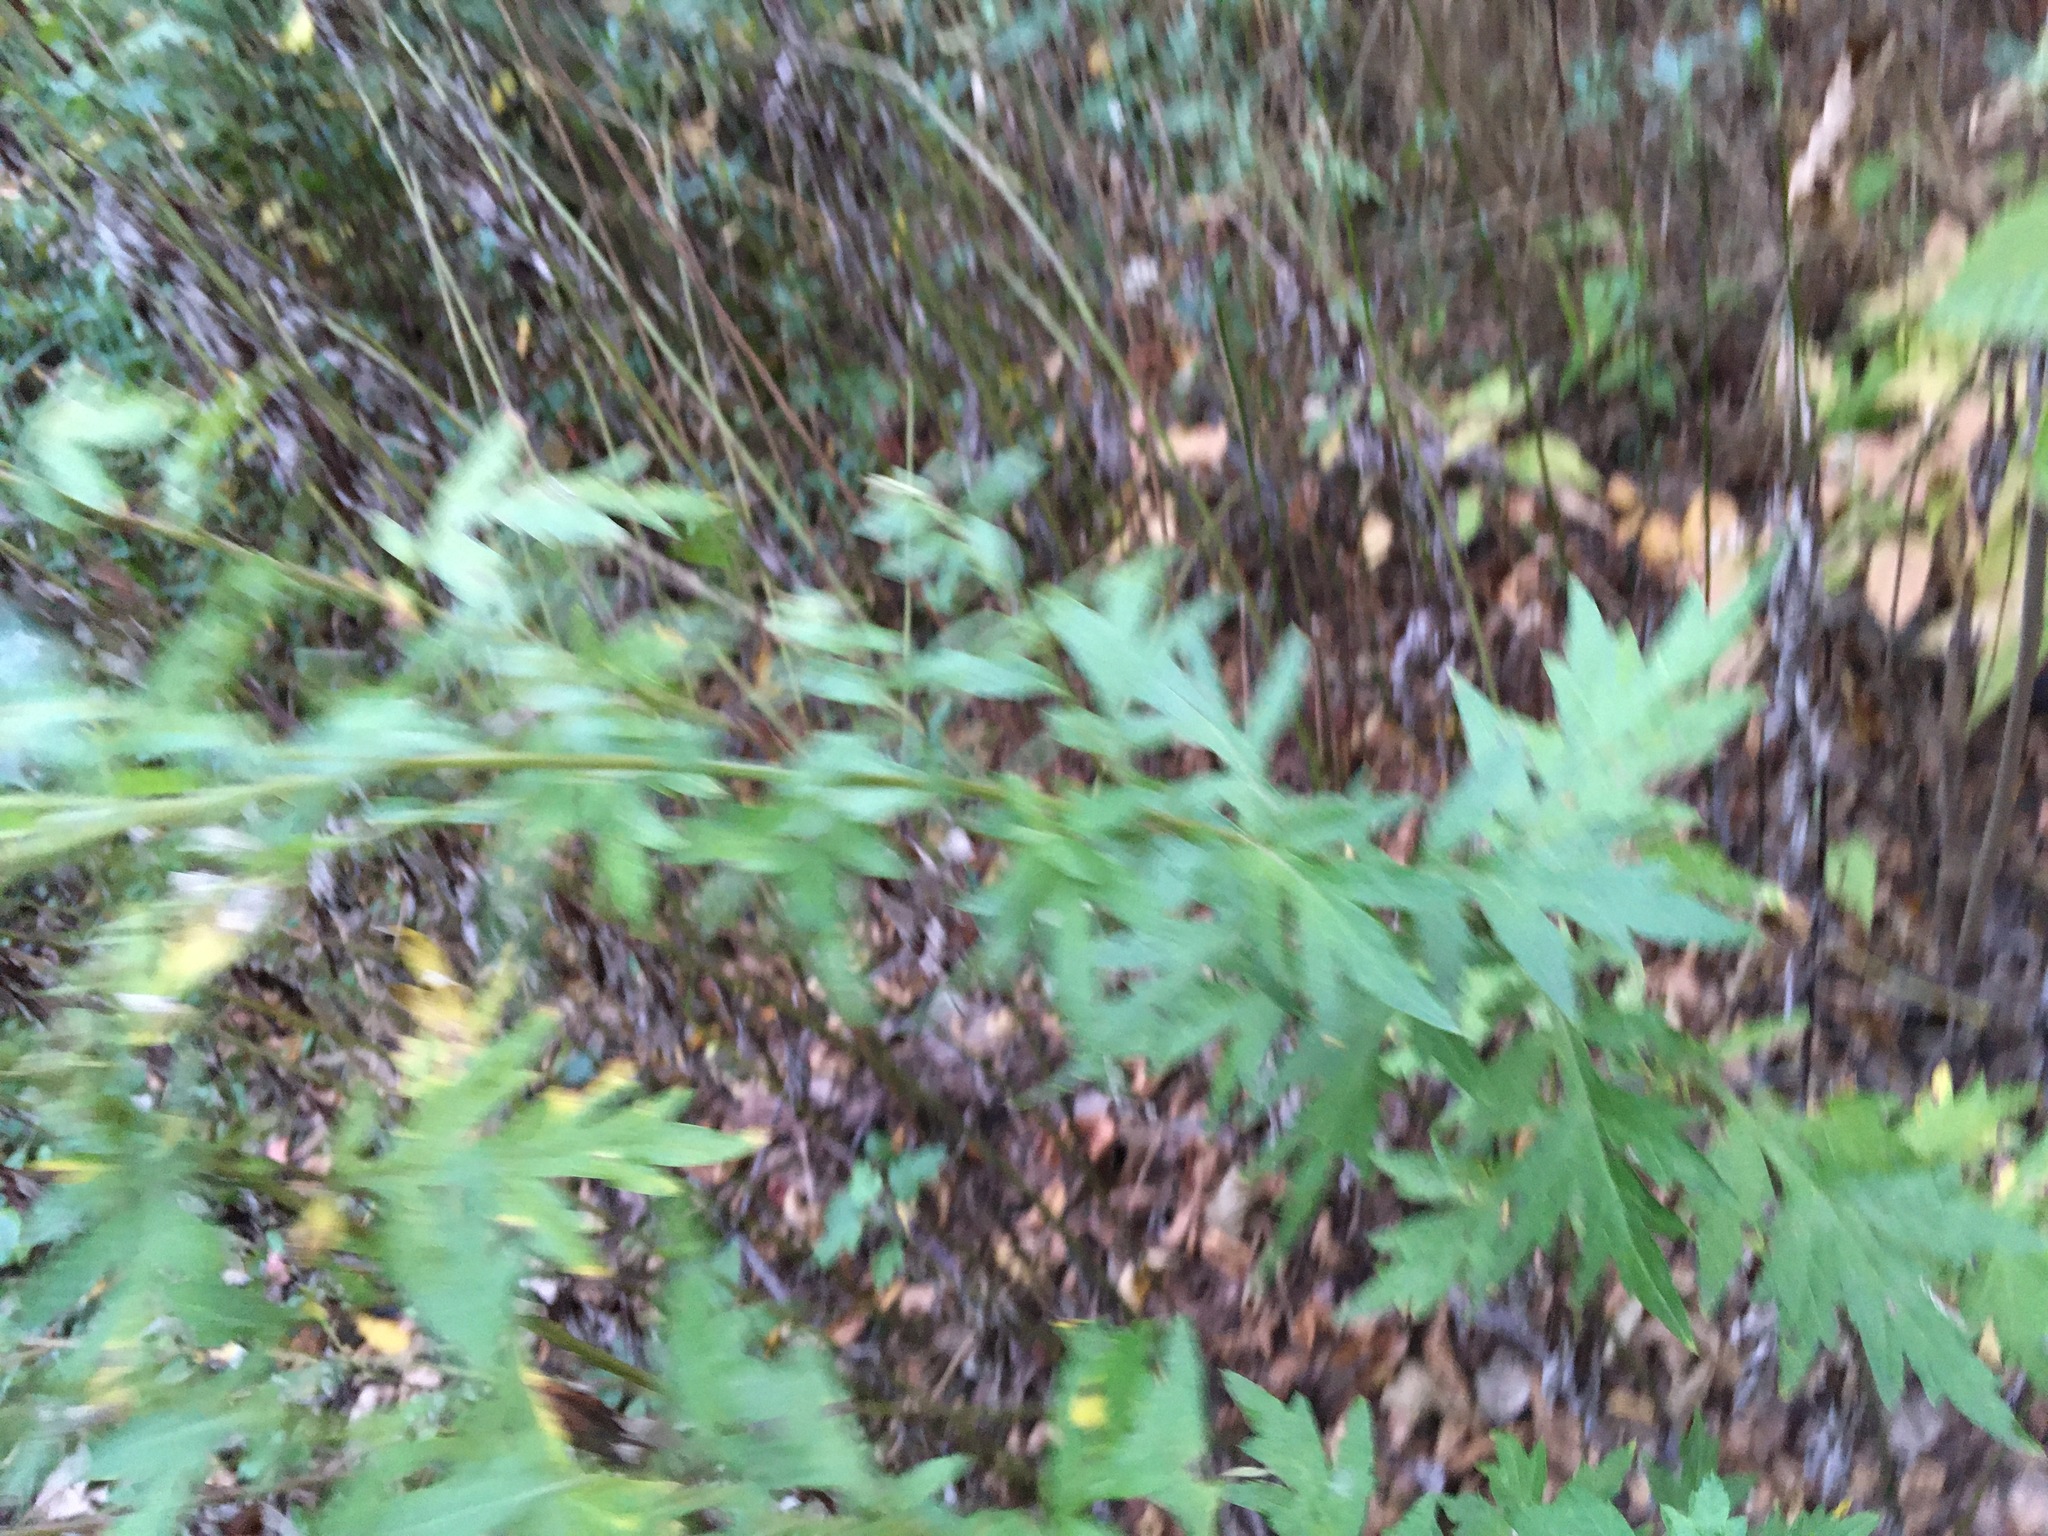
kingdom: Plantae
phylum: Tracheophyta
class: Magnoliopsida
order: Asterales
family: Asteraceae
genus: Artemisia
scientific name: Artemisia vulgaris
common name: Mugwort
